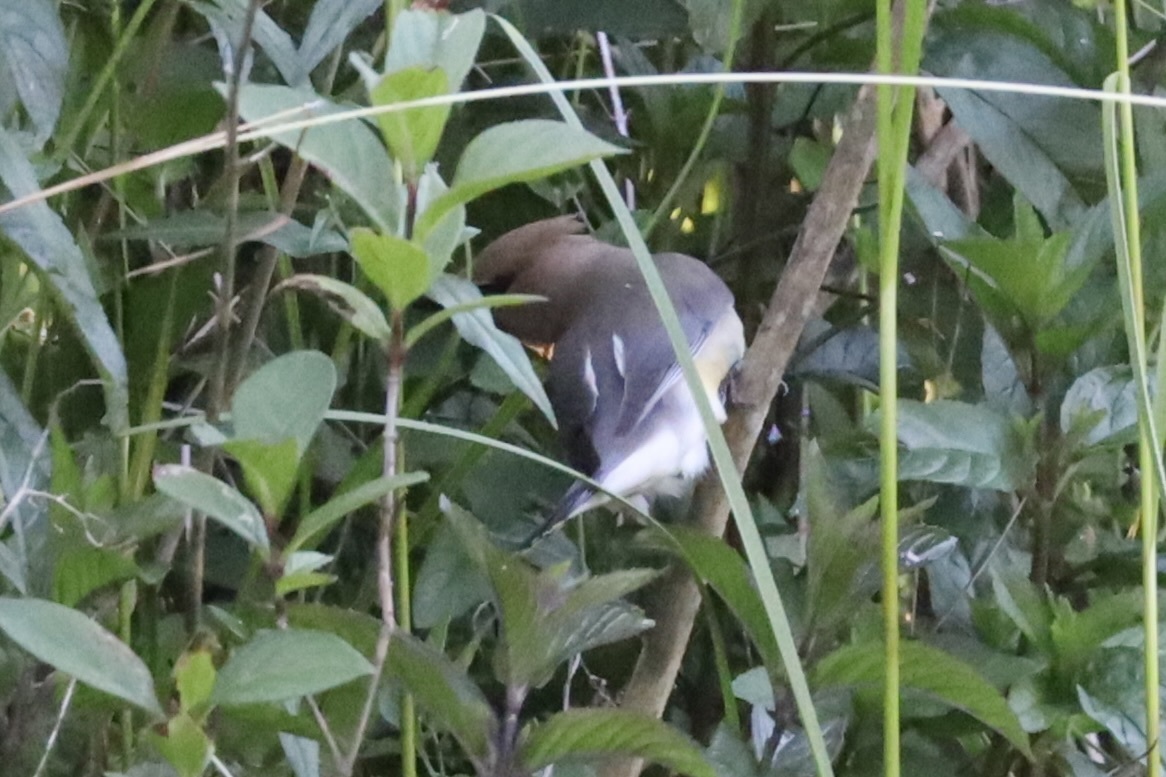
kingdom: Animalia
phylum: Chordata
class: Aves
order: Passeriformes
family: Bombycillidae
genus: Bombycilla
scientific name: Bombycilla cedrorum
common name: Cedar waxwing
